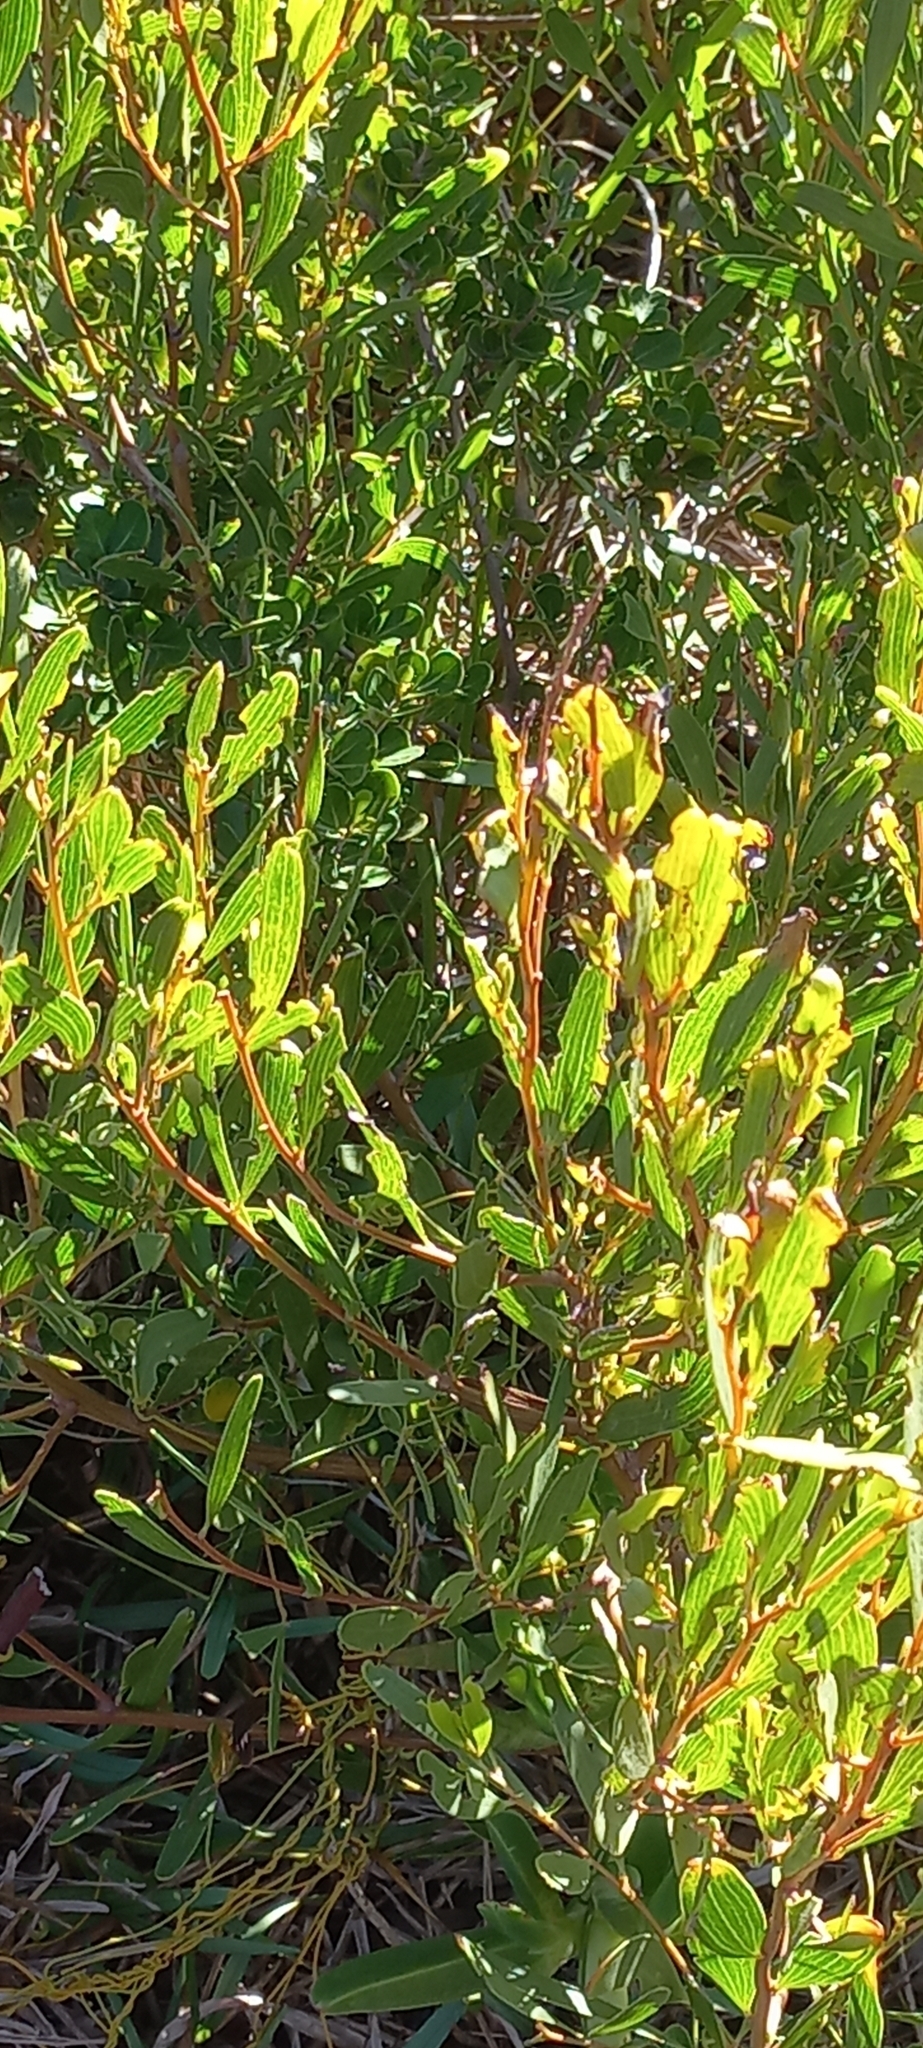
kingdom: Plantae
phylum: Tracheophyta
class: Magnoliopsida
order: Fabales
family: Fabaceae
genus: Acacia
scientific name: Acacia cyclops
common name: Coastal wattle
